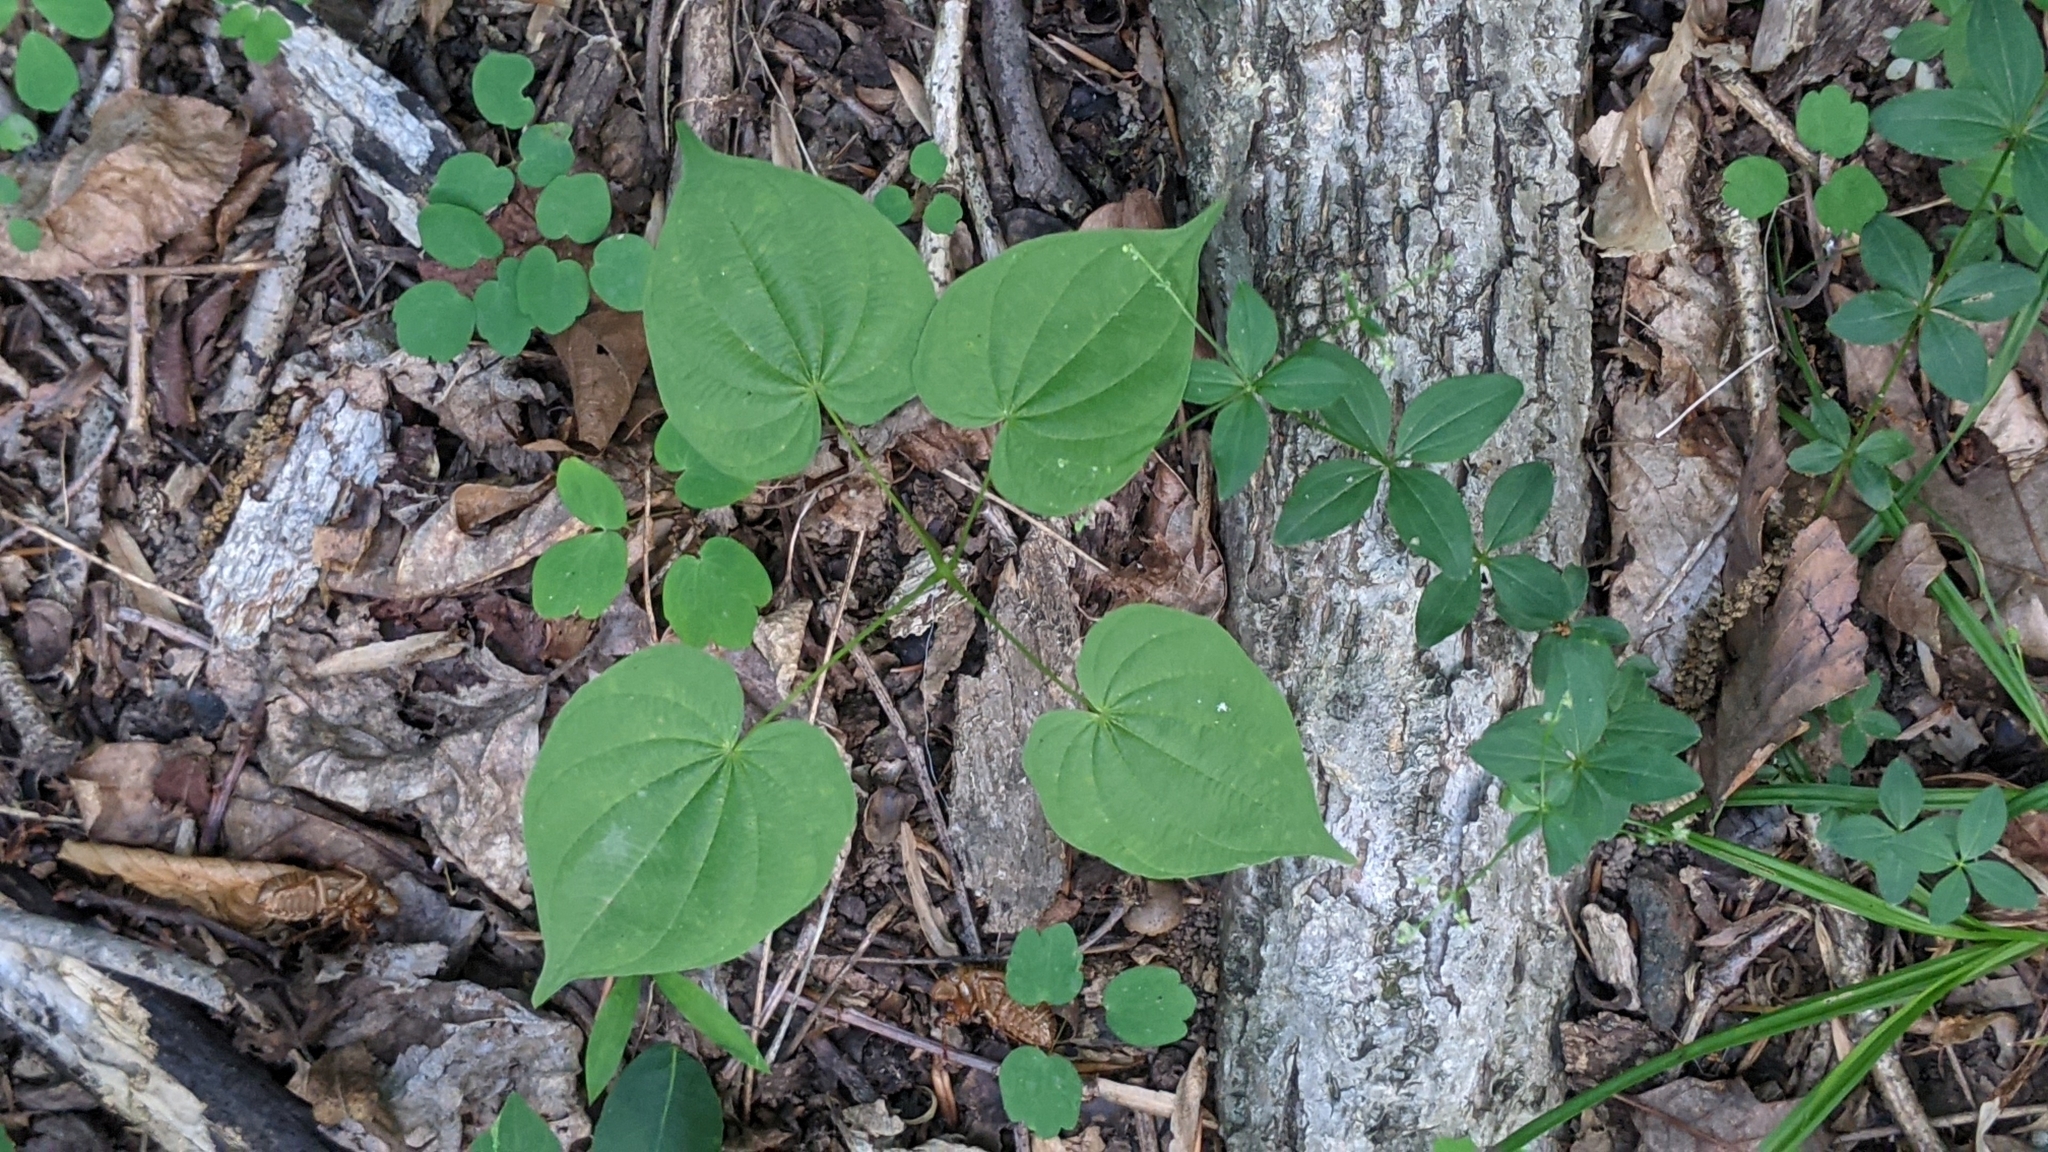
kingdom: Plantae
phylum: Tracheophyta
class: Liliopsida
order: Dioscoreales
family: Dioscoreaceae
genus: Dioscorea
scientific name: Dioscorea villosa
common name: Wild yam
